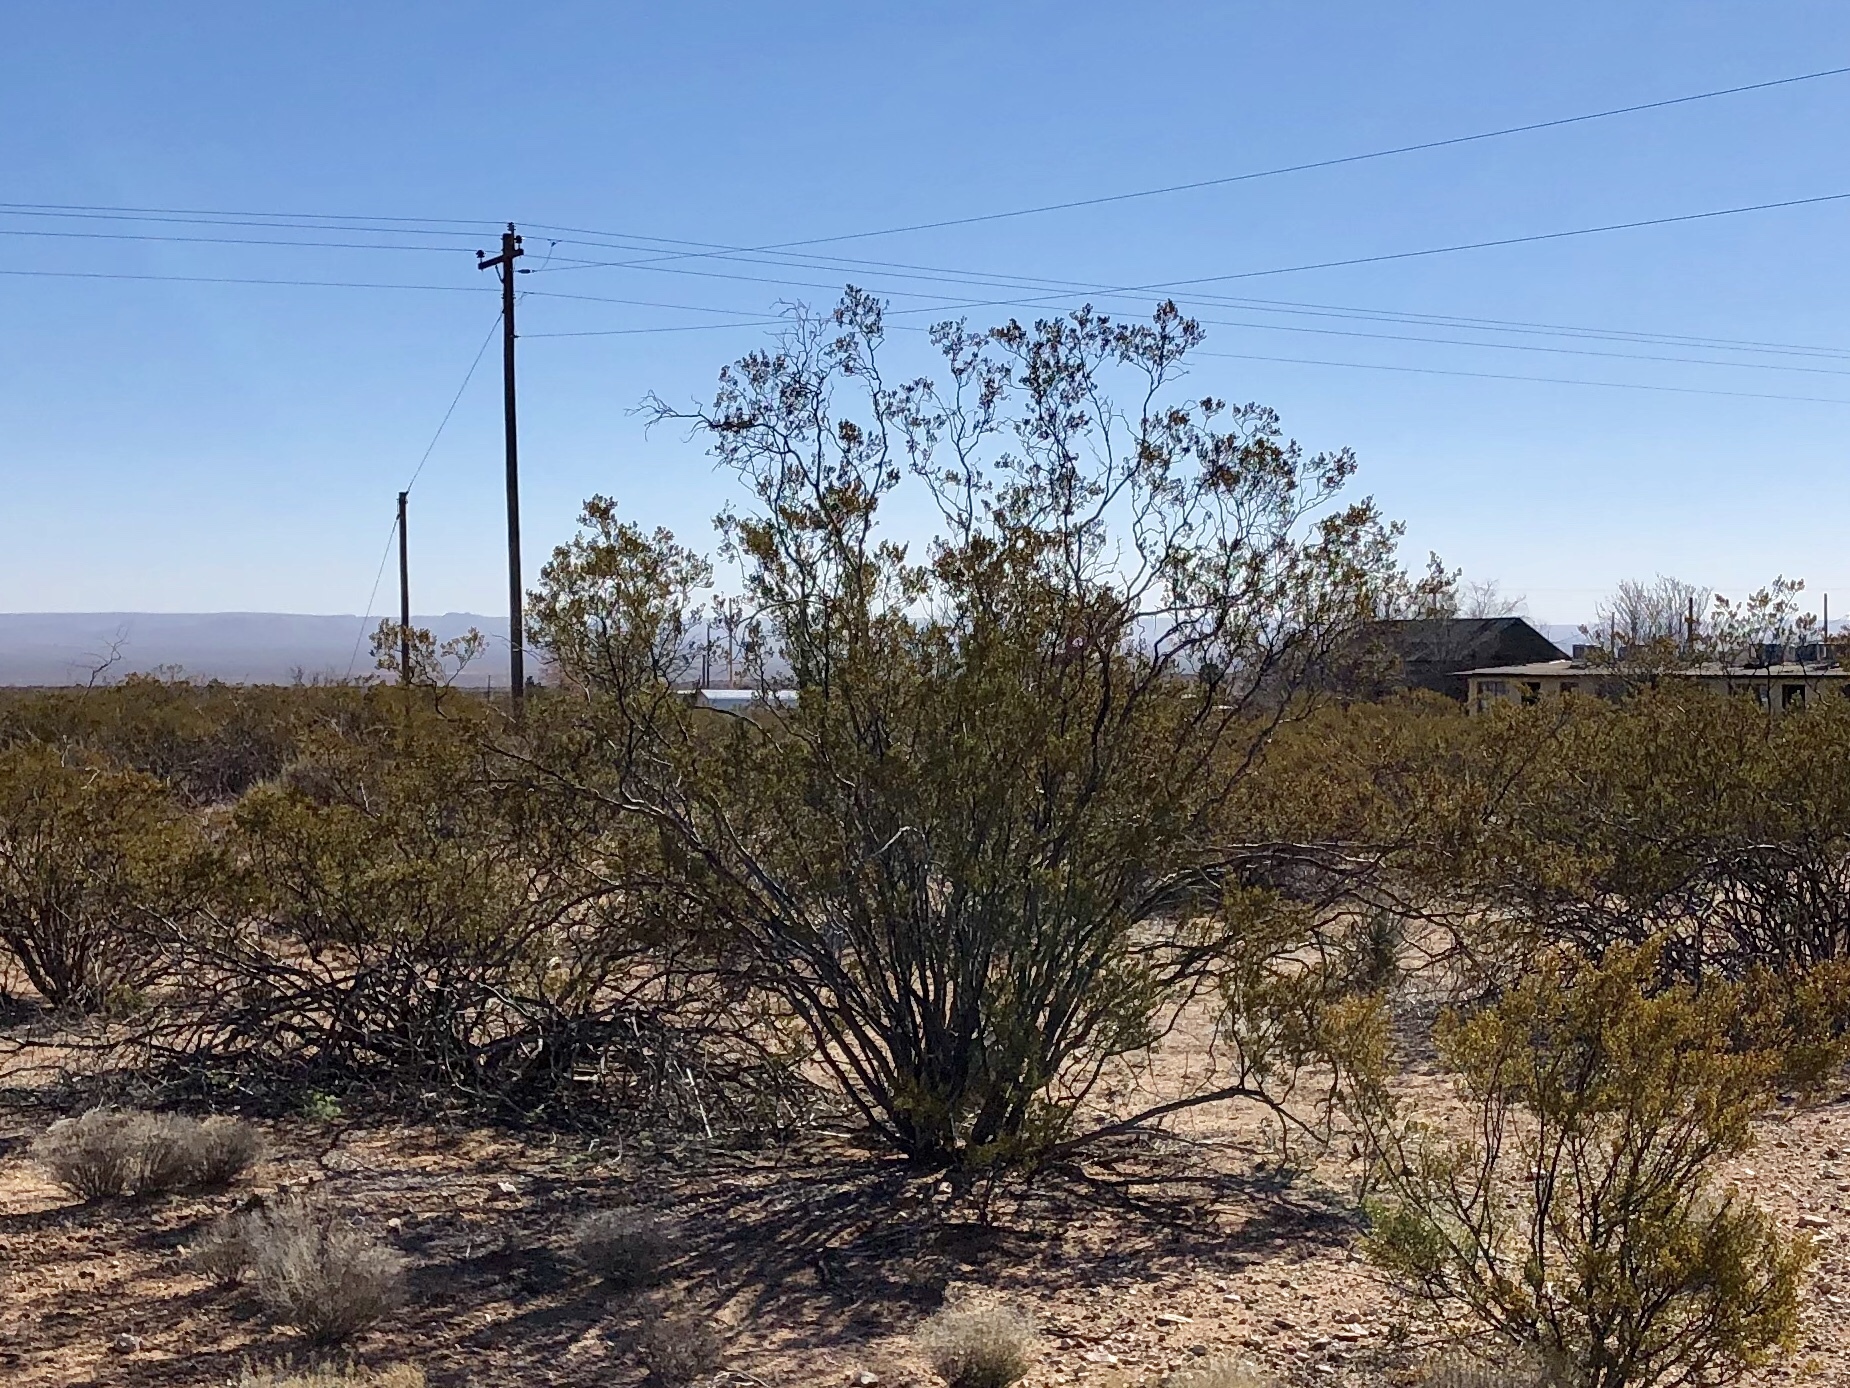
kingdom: Plantae
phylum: Tracheophyta
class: Magnoliopsida
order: Zygophyllales
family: Zygophyllaceae
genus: Larrea
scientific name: Larrea tridentata
